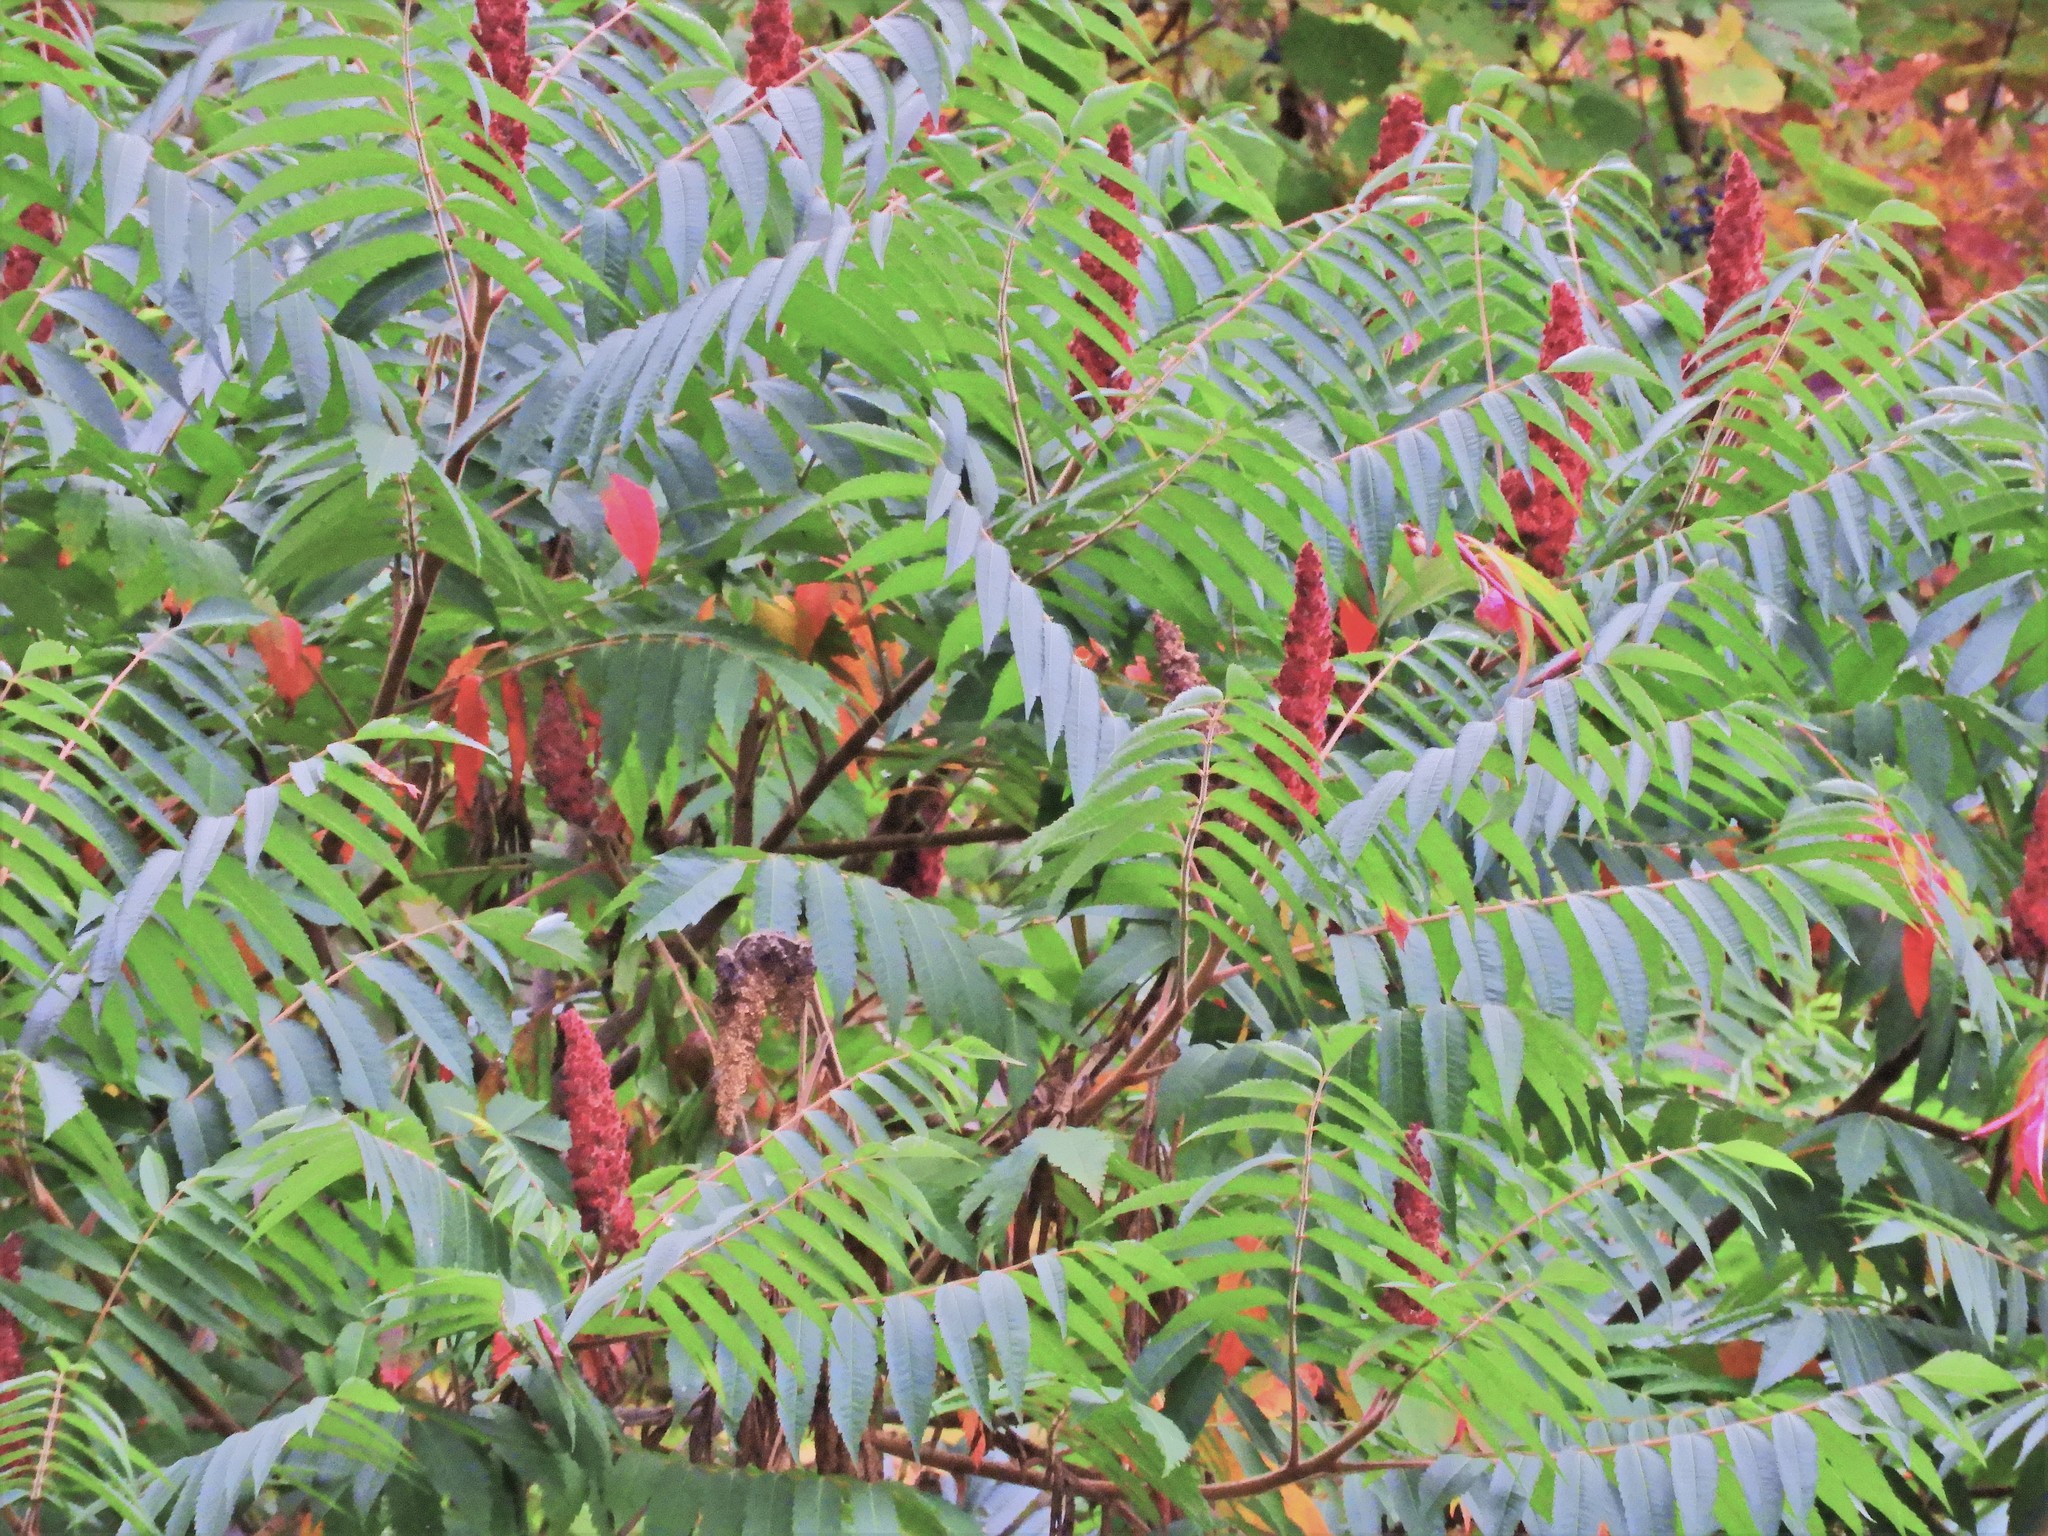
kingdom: Plantae
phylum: Tracheophyta
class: Magnoliopsida
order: Sapindales
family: Anacardiaceae
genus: Rhus
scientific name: Rhus typhina
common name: Staghorn sumac
